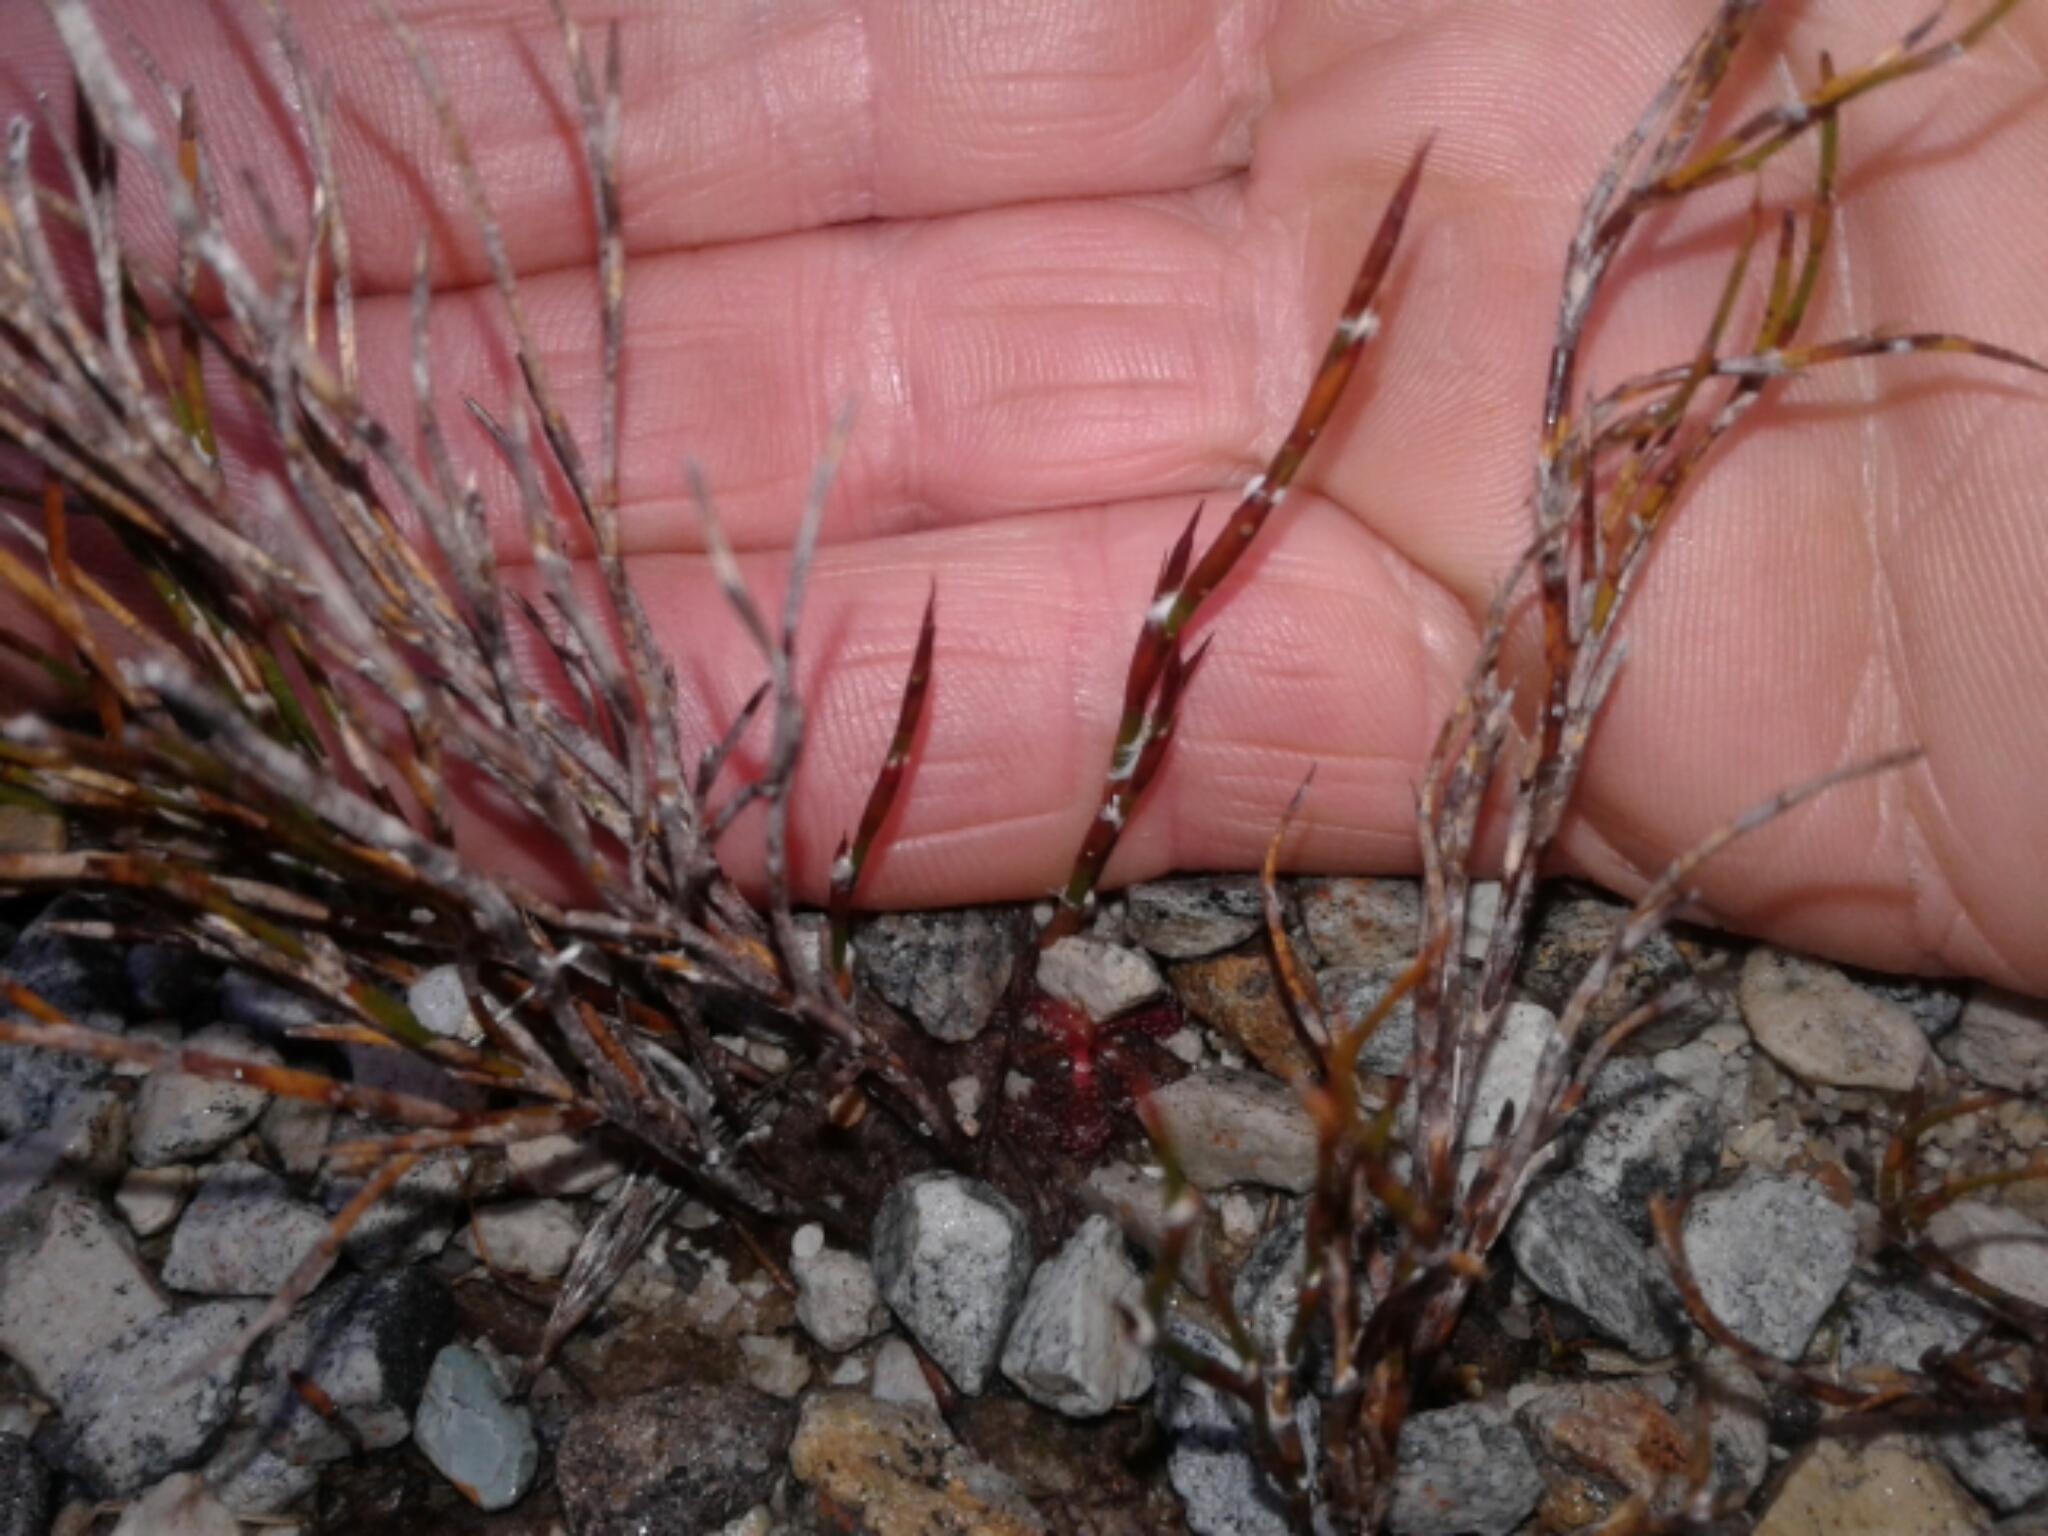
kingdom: Plantae
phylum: Tracheophyta
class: Liliopsida
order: Poales
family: Restionaceae
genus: Empodisma
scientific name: Empodisma minus
